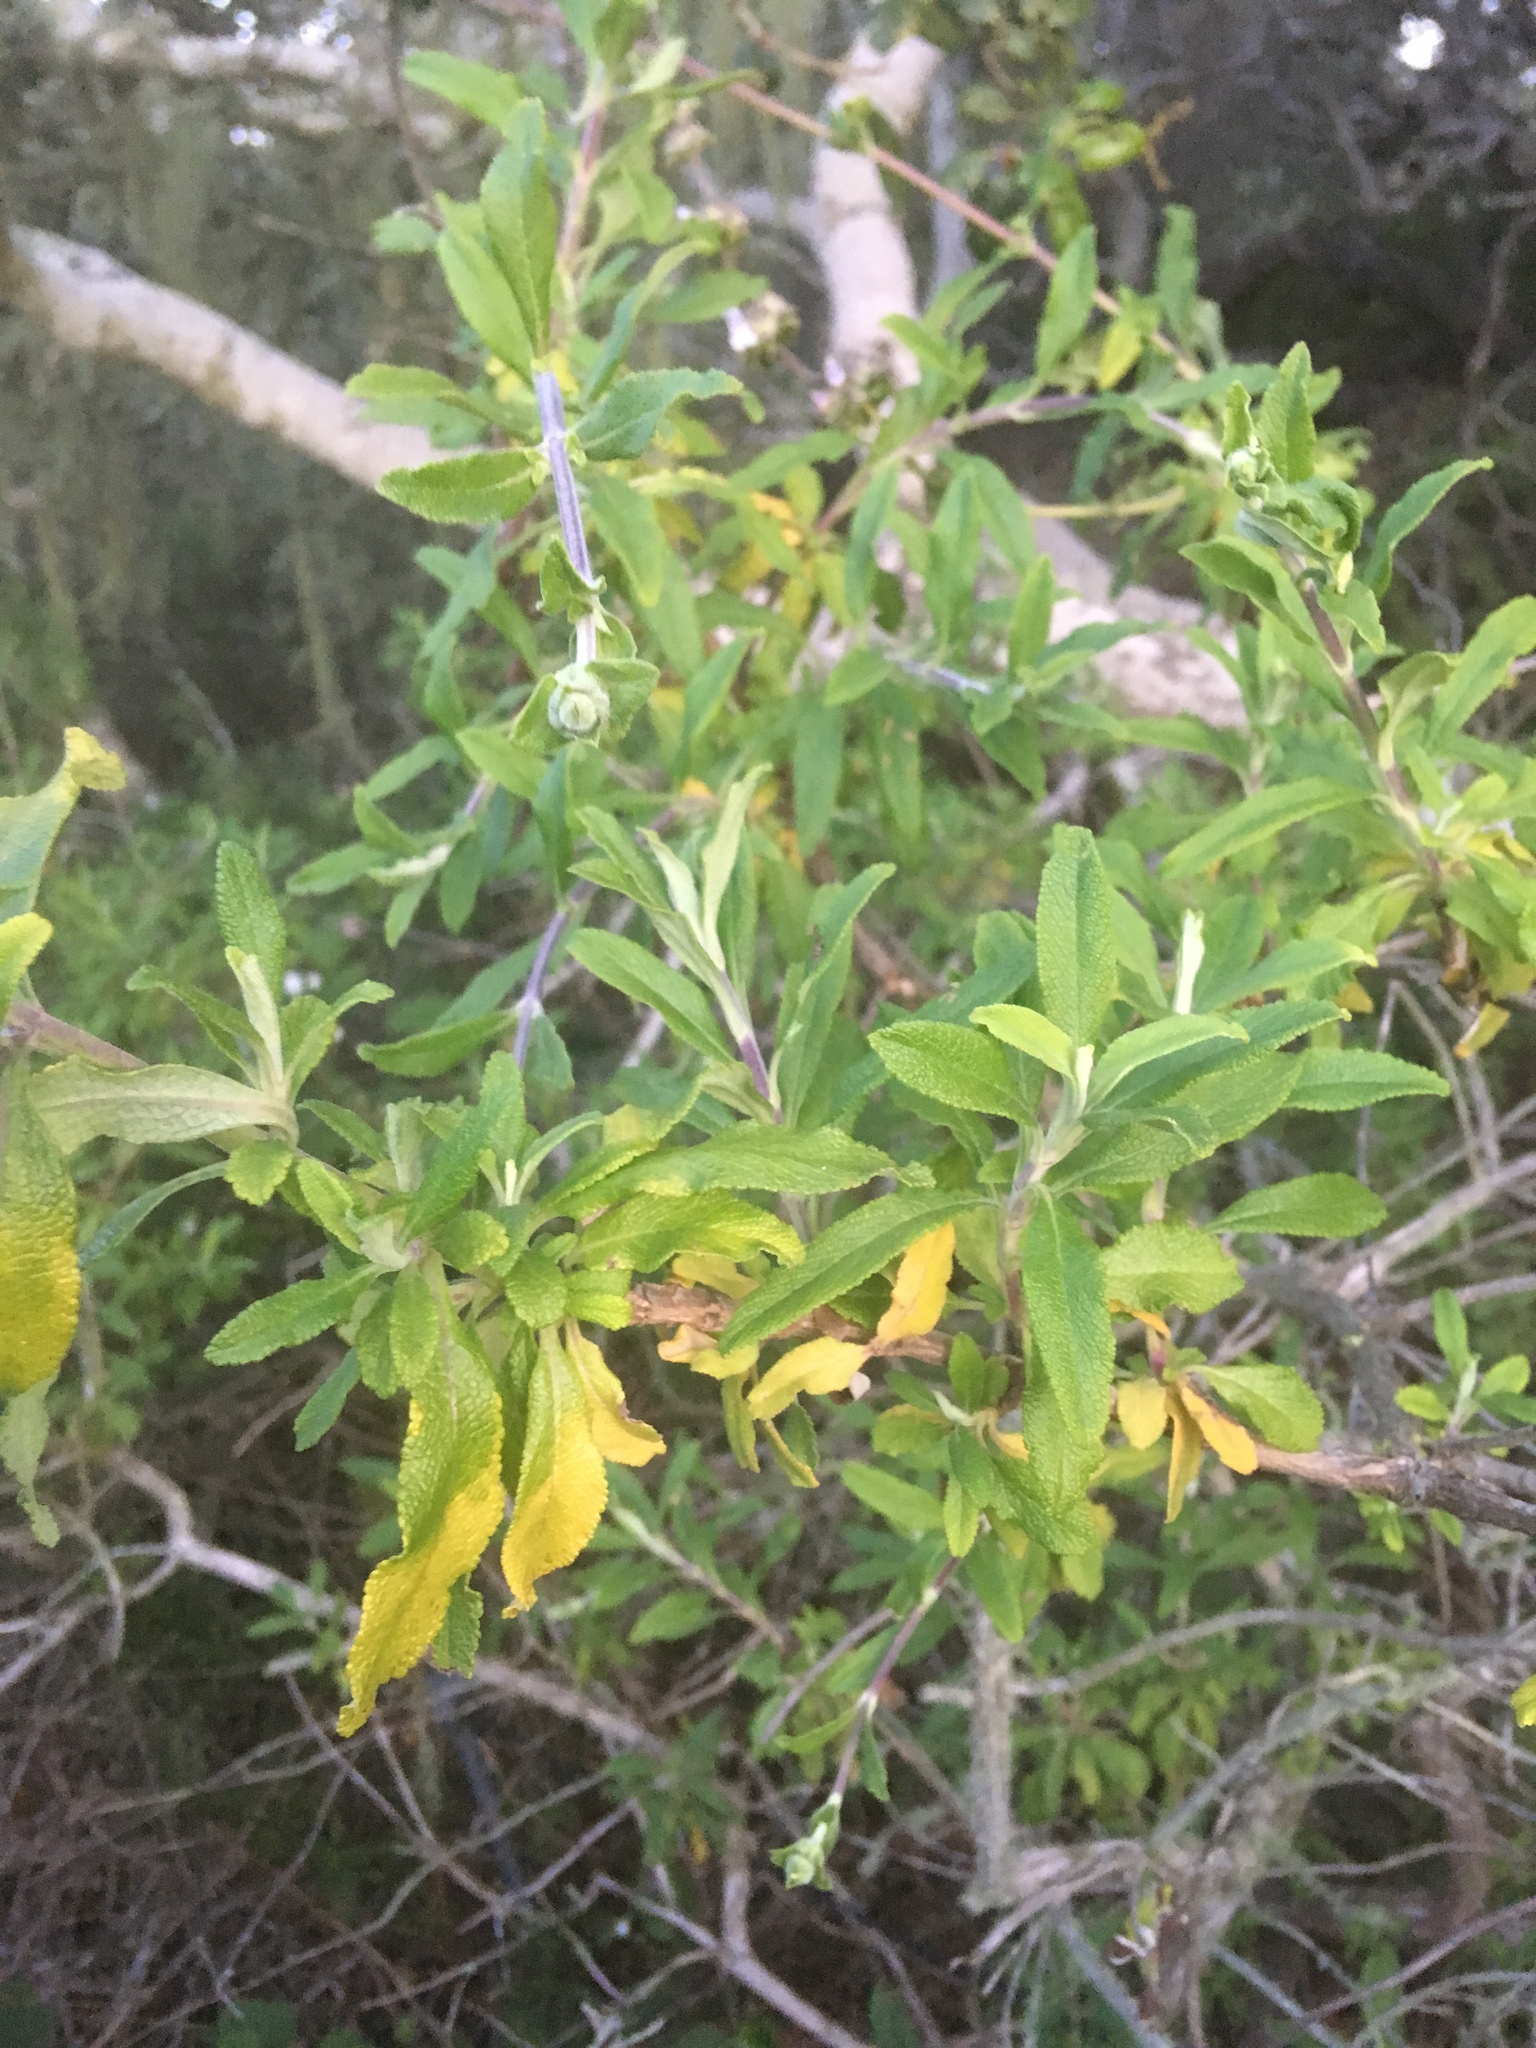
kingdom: Plantae
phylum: Tracheophyta
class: Magnoliopsida
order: Lamiales
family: Lamiaceae
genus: Salvia
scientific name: Salvia mellifera
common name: Black sage
